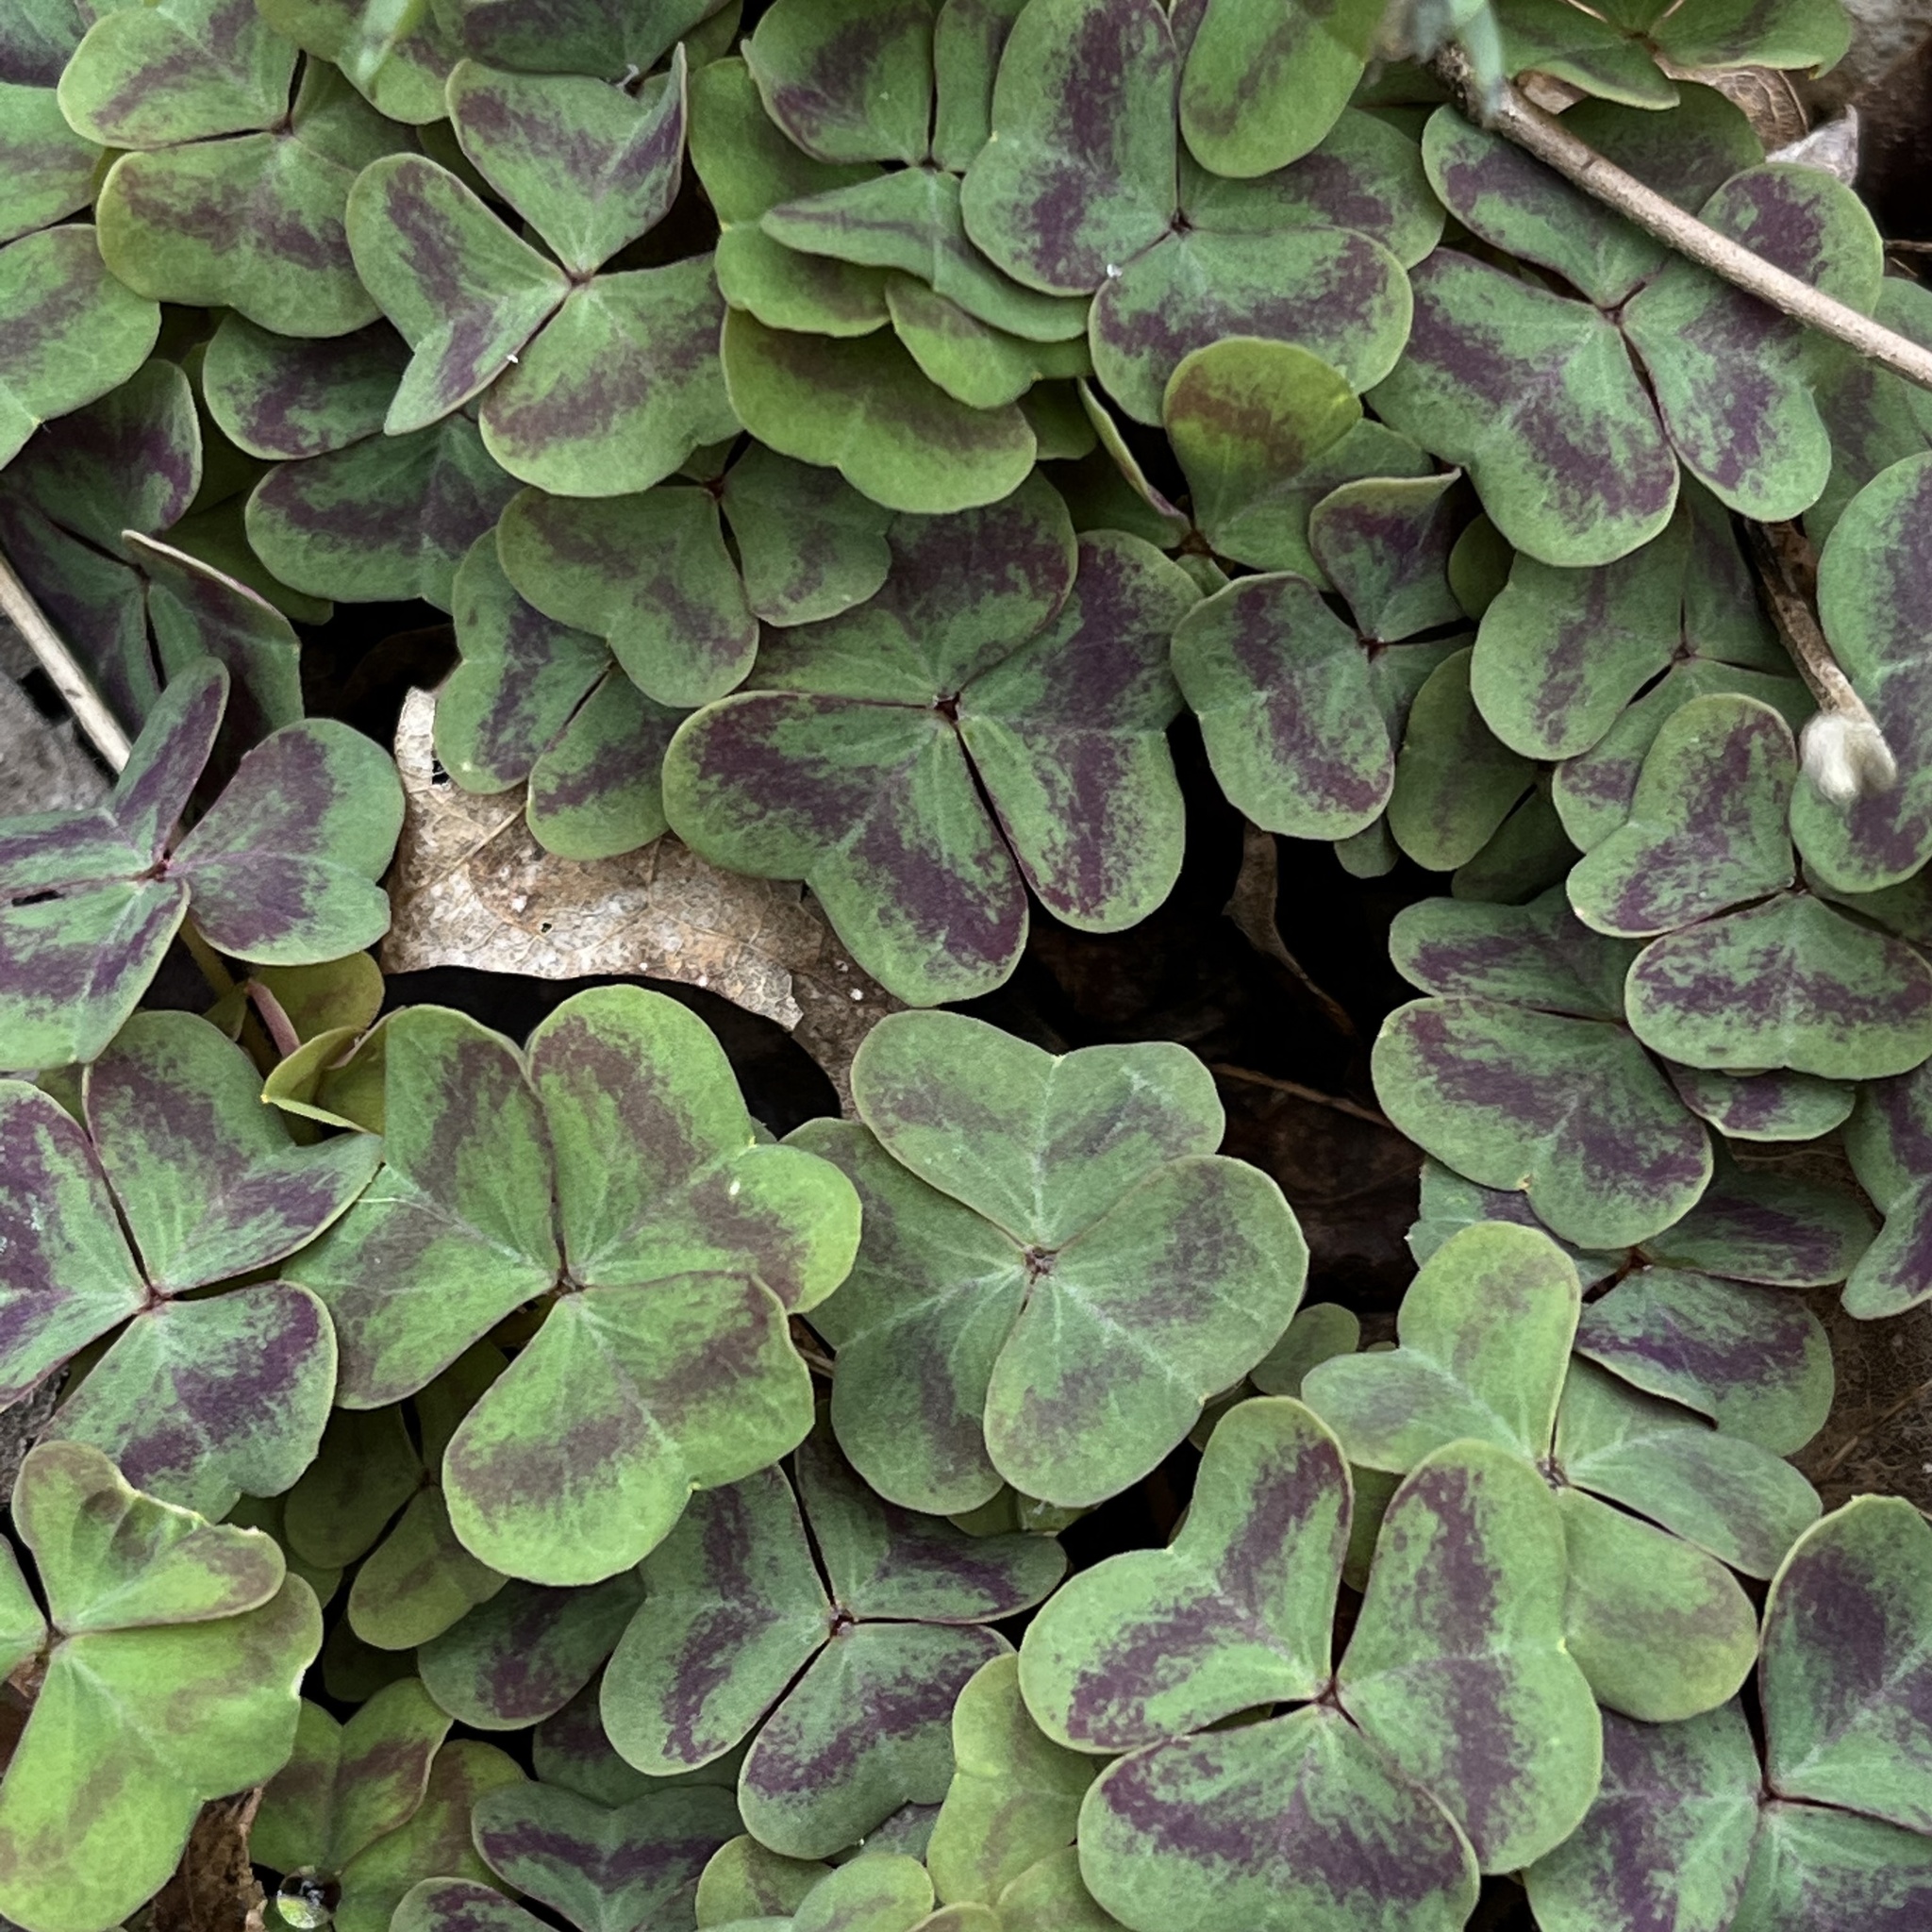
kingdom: Plantae
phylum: Tracheophyta
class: Magnoliopsida
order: Oxalidales
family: Oxalidaceae
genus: Oxalis
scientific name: Oxalis violacea
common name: Violet wood-sorrel
